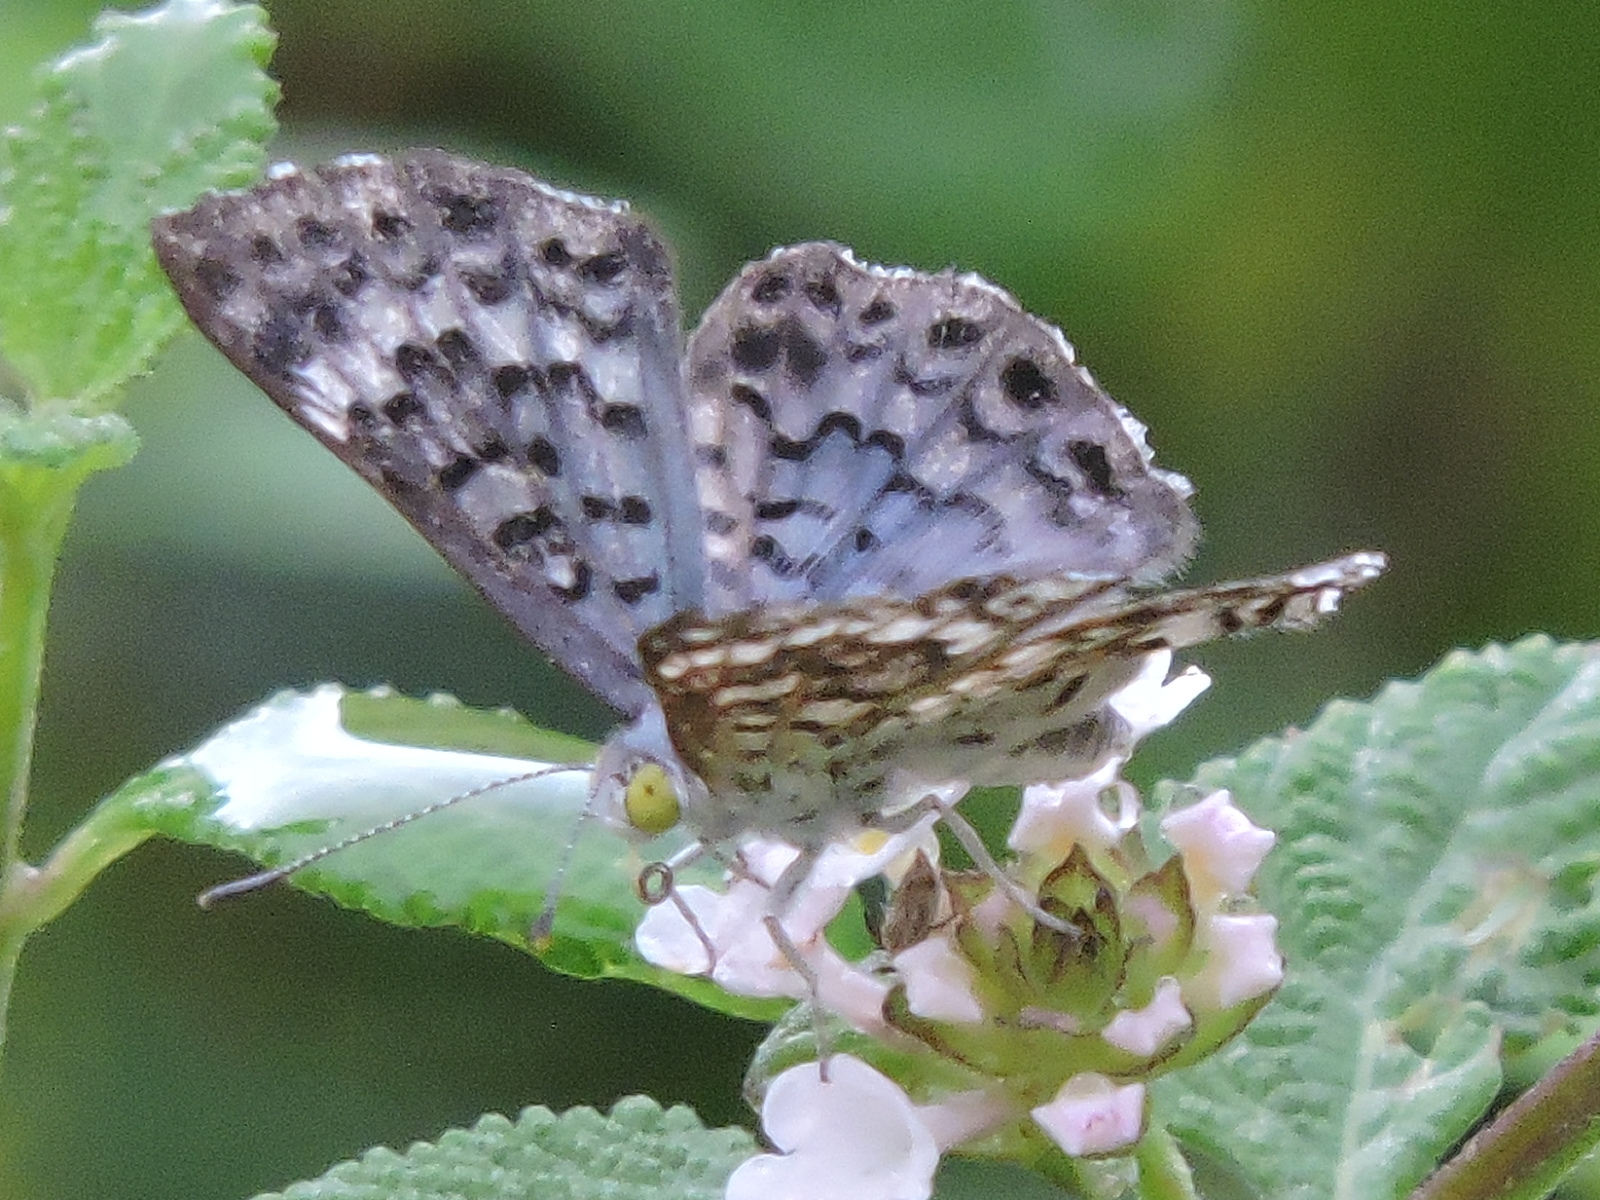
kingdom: Animalia
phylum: Arthropoda
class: Insecta
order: Lepidoptera
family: Riodinidae
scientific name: Riodinidae
